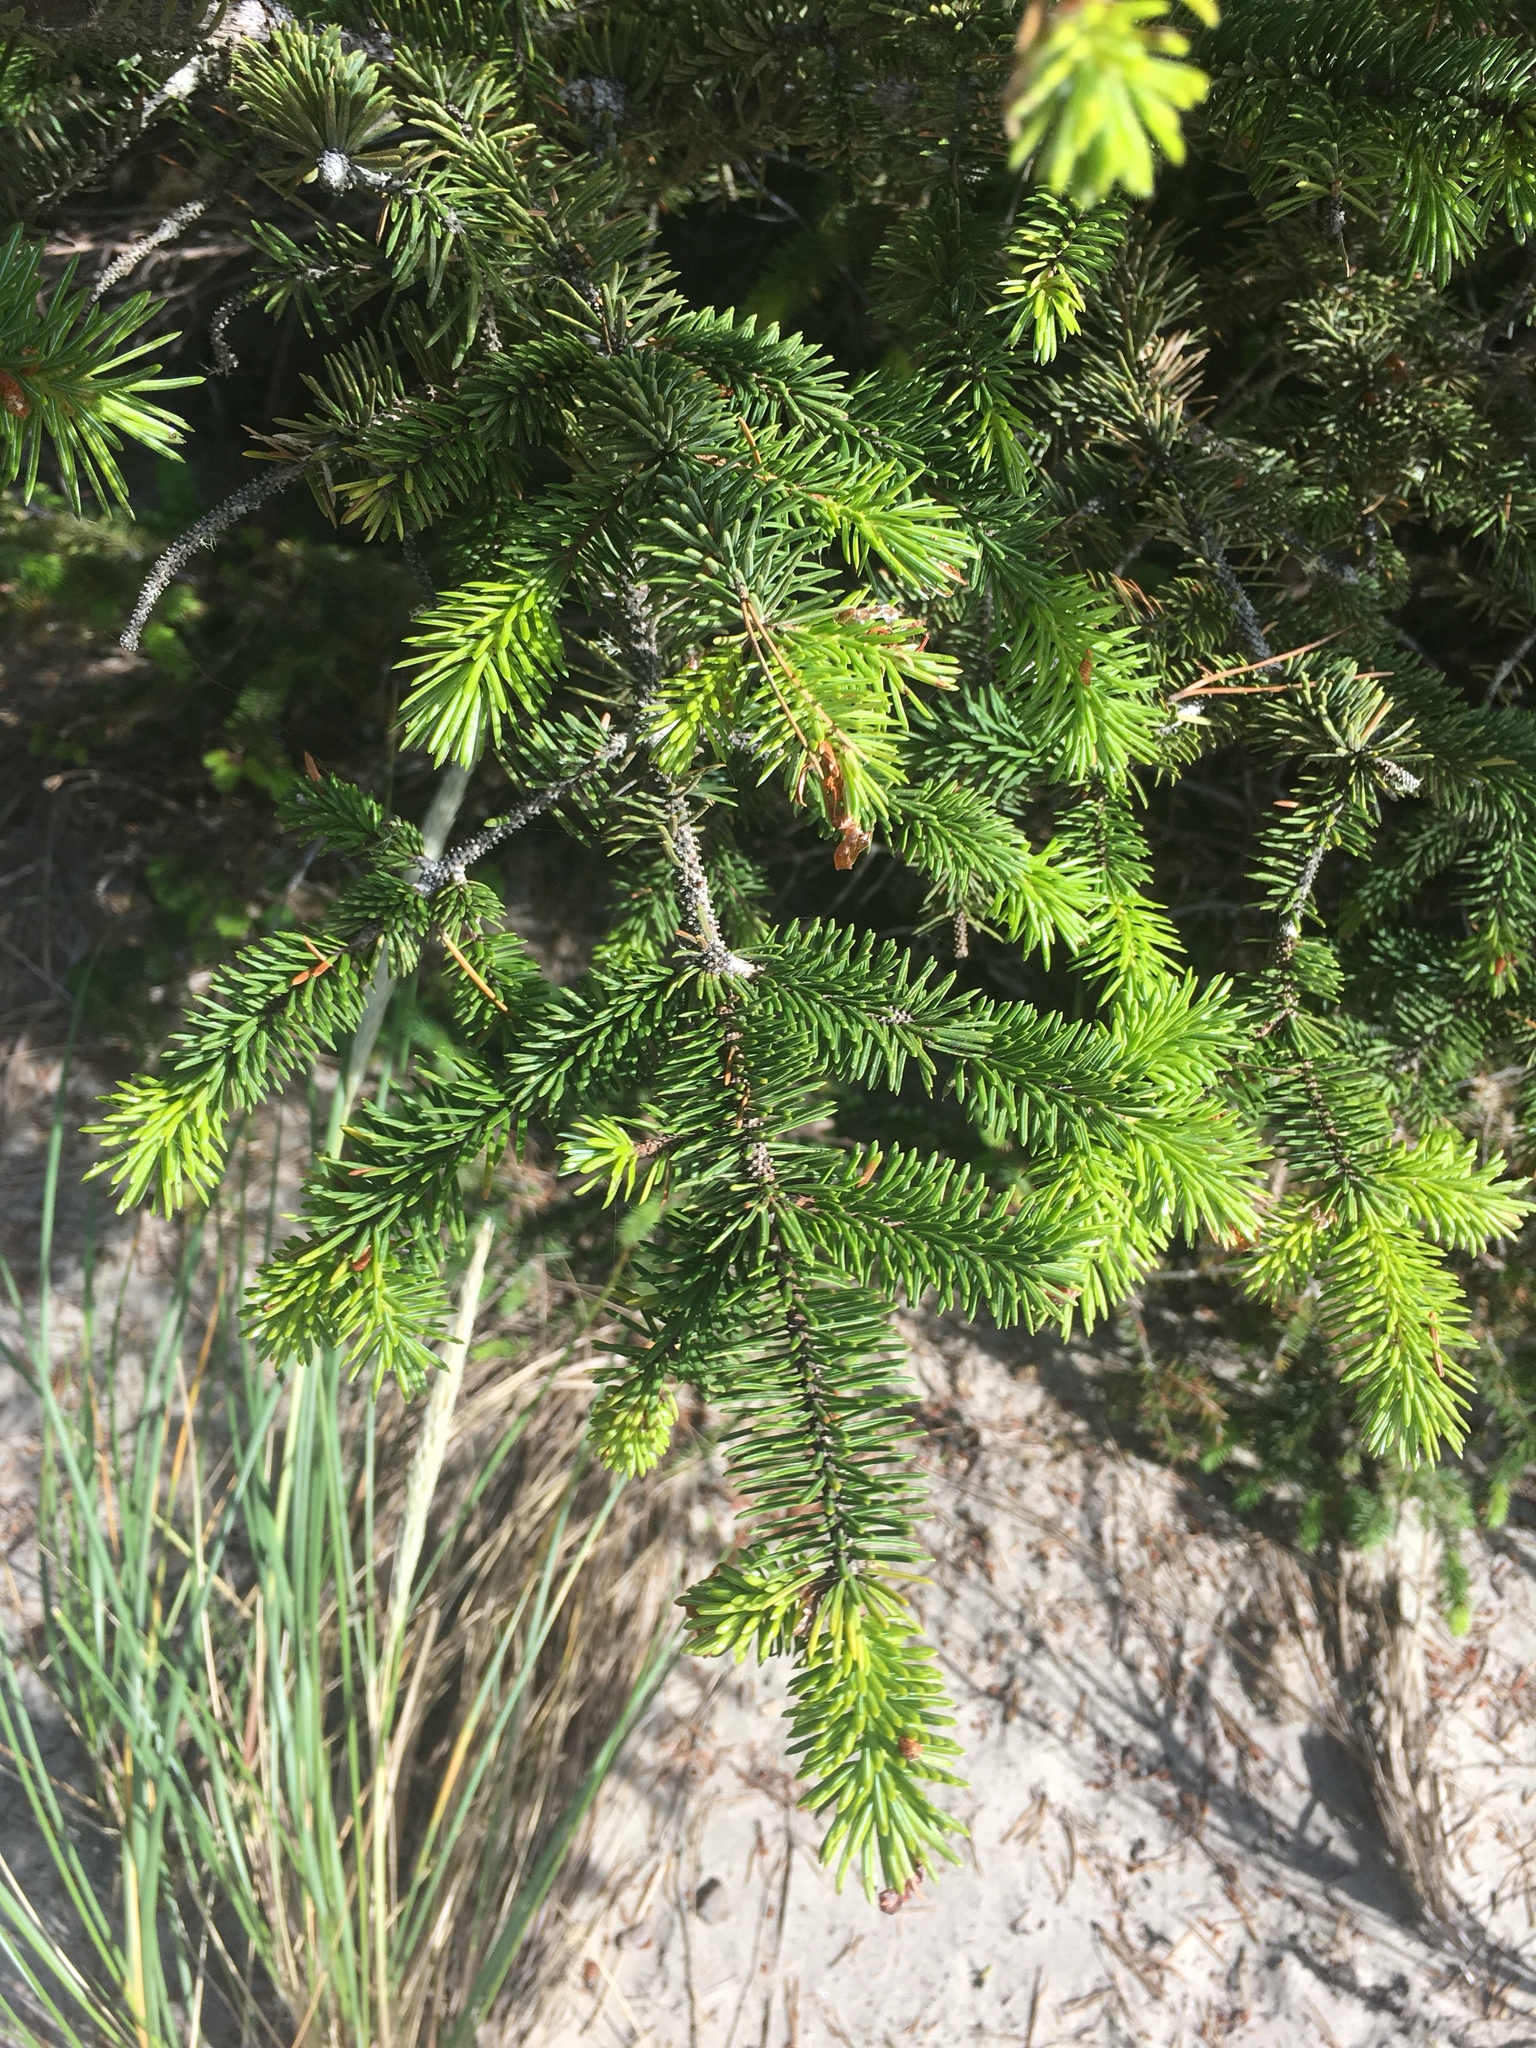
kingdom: Plantae
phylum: Tracheophyta
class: Pinopsida
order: Pinales
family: Pinaceae
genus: Picea
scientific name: Picea sitchensis
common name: Sitka spruce
